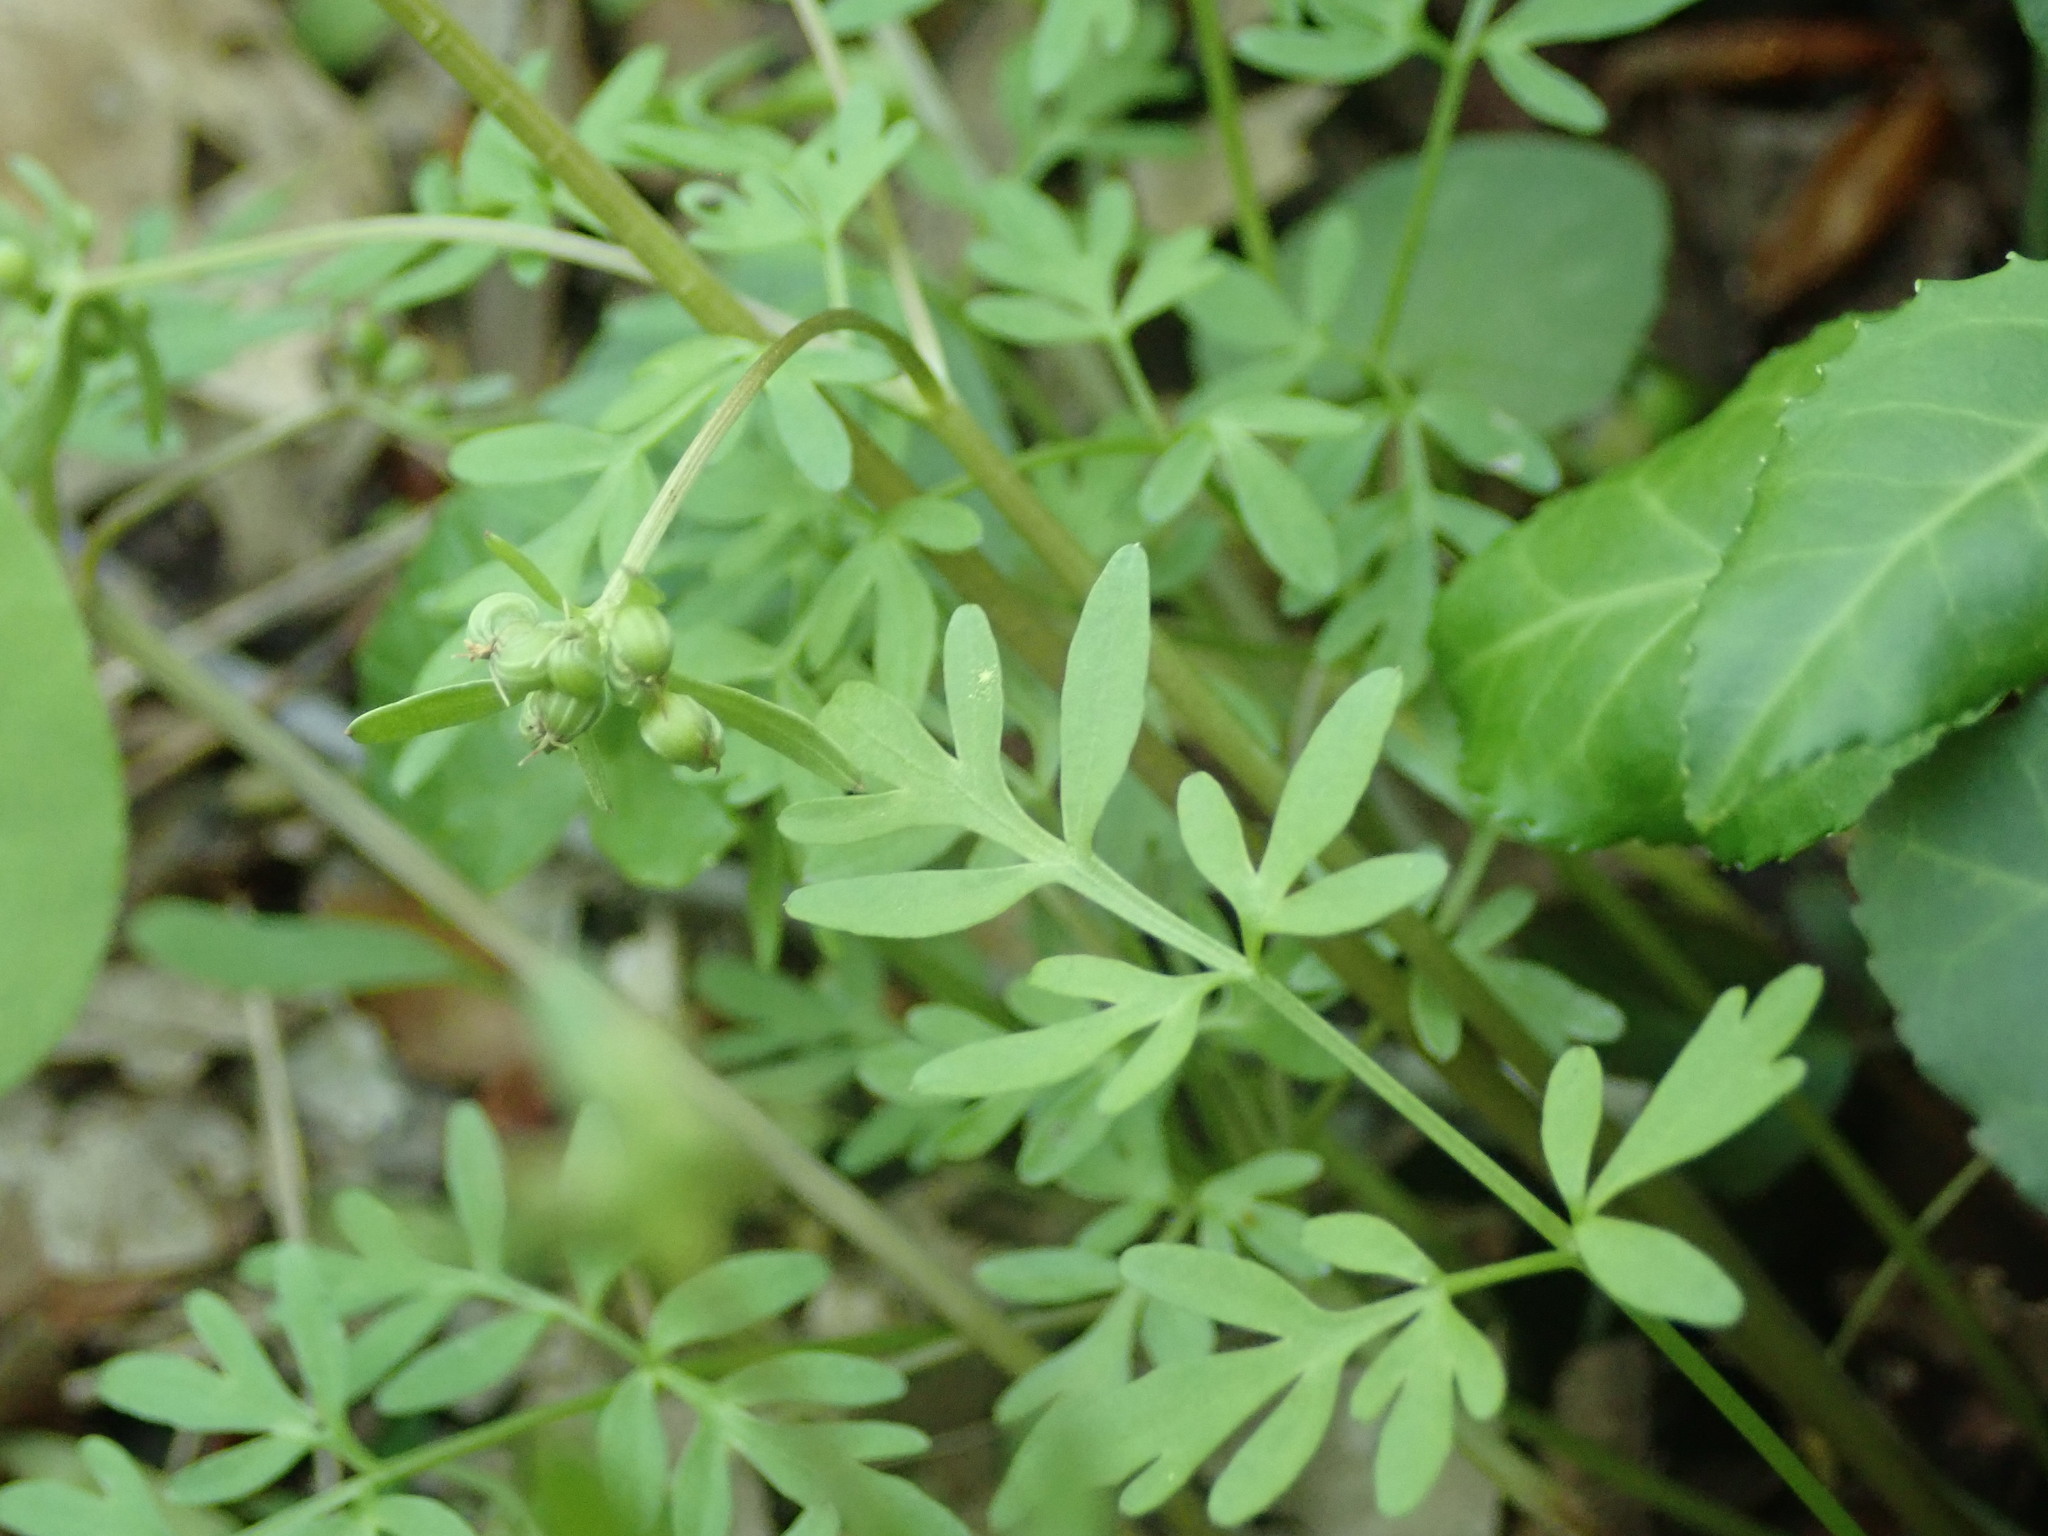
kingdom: Plantae
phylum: Tracheophyta
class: Magnoliopsida
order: Apiales
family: Apiaceae
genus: Erigenia
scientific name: Erigenia bulbosa
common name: Pepper-and-salt
